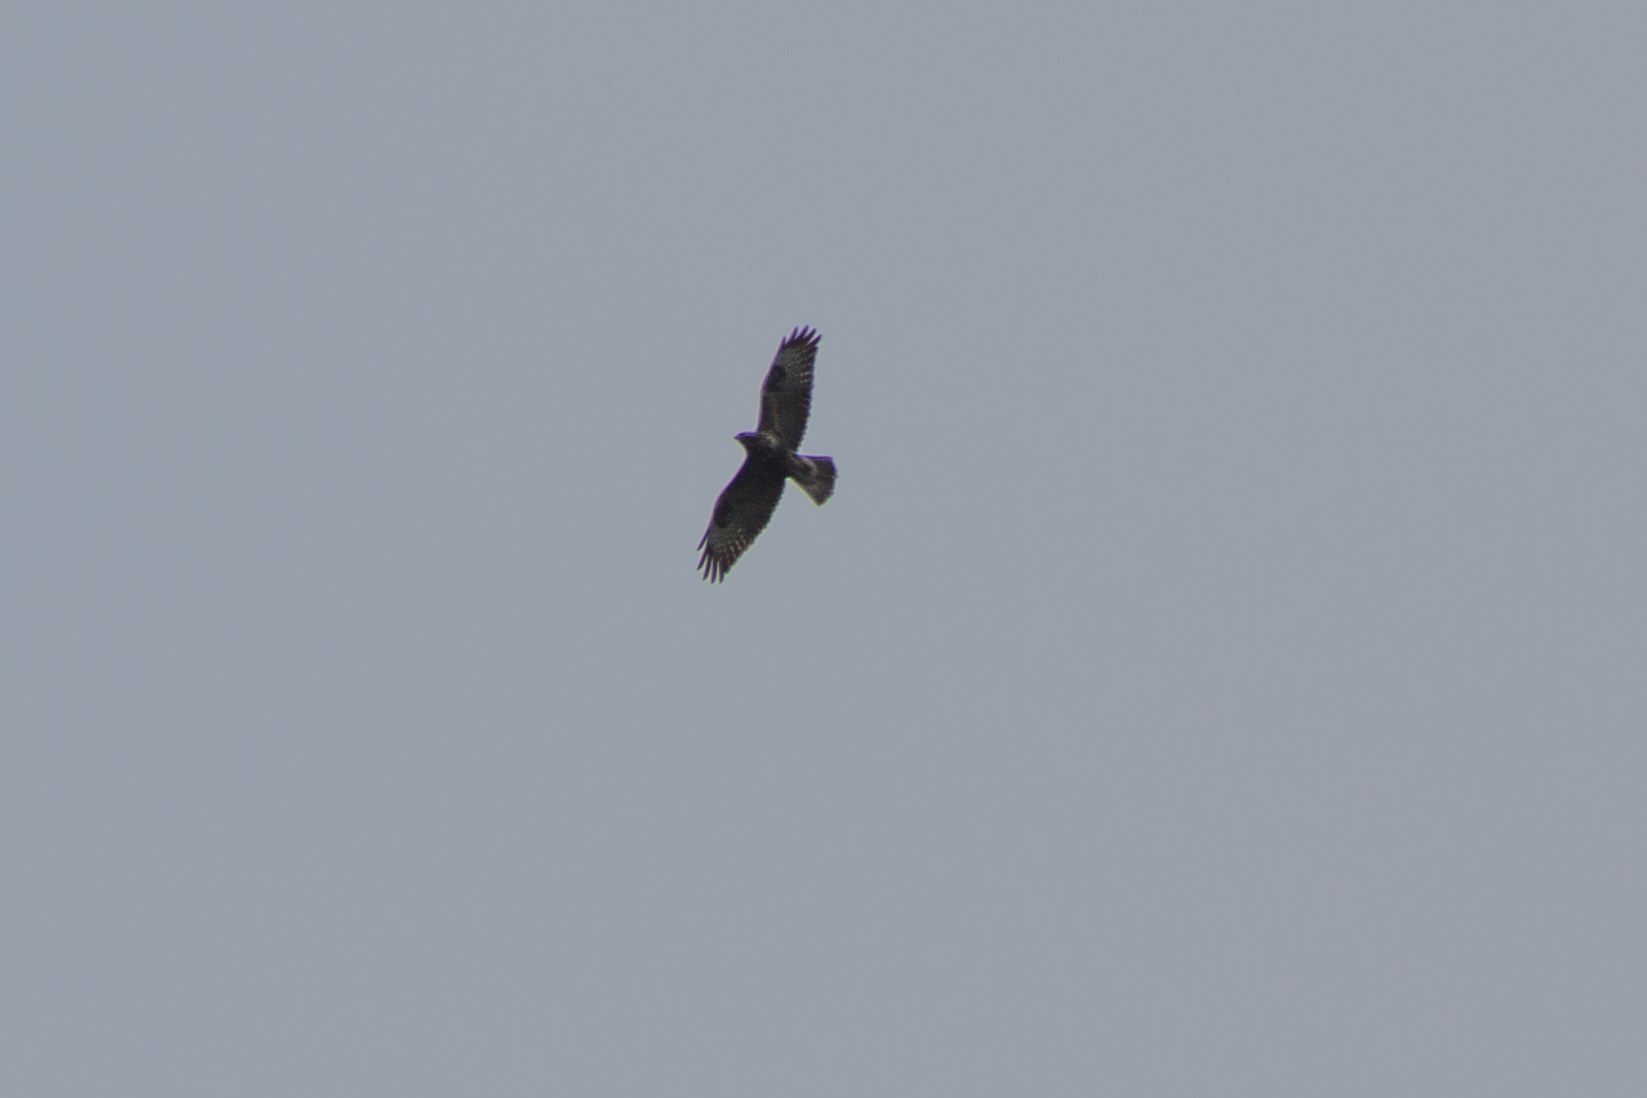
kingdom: Animalia
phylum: Chordata
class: Aves
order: Accipitriformes
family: Accipitridae
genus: Buteo
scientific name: Buteo buteo
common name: Common buzzard
